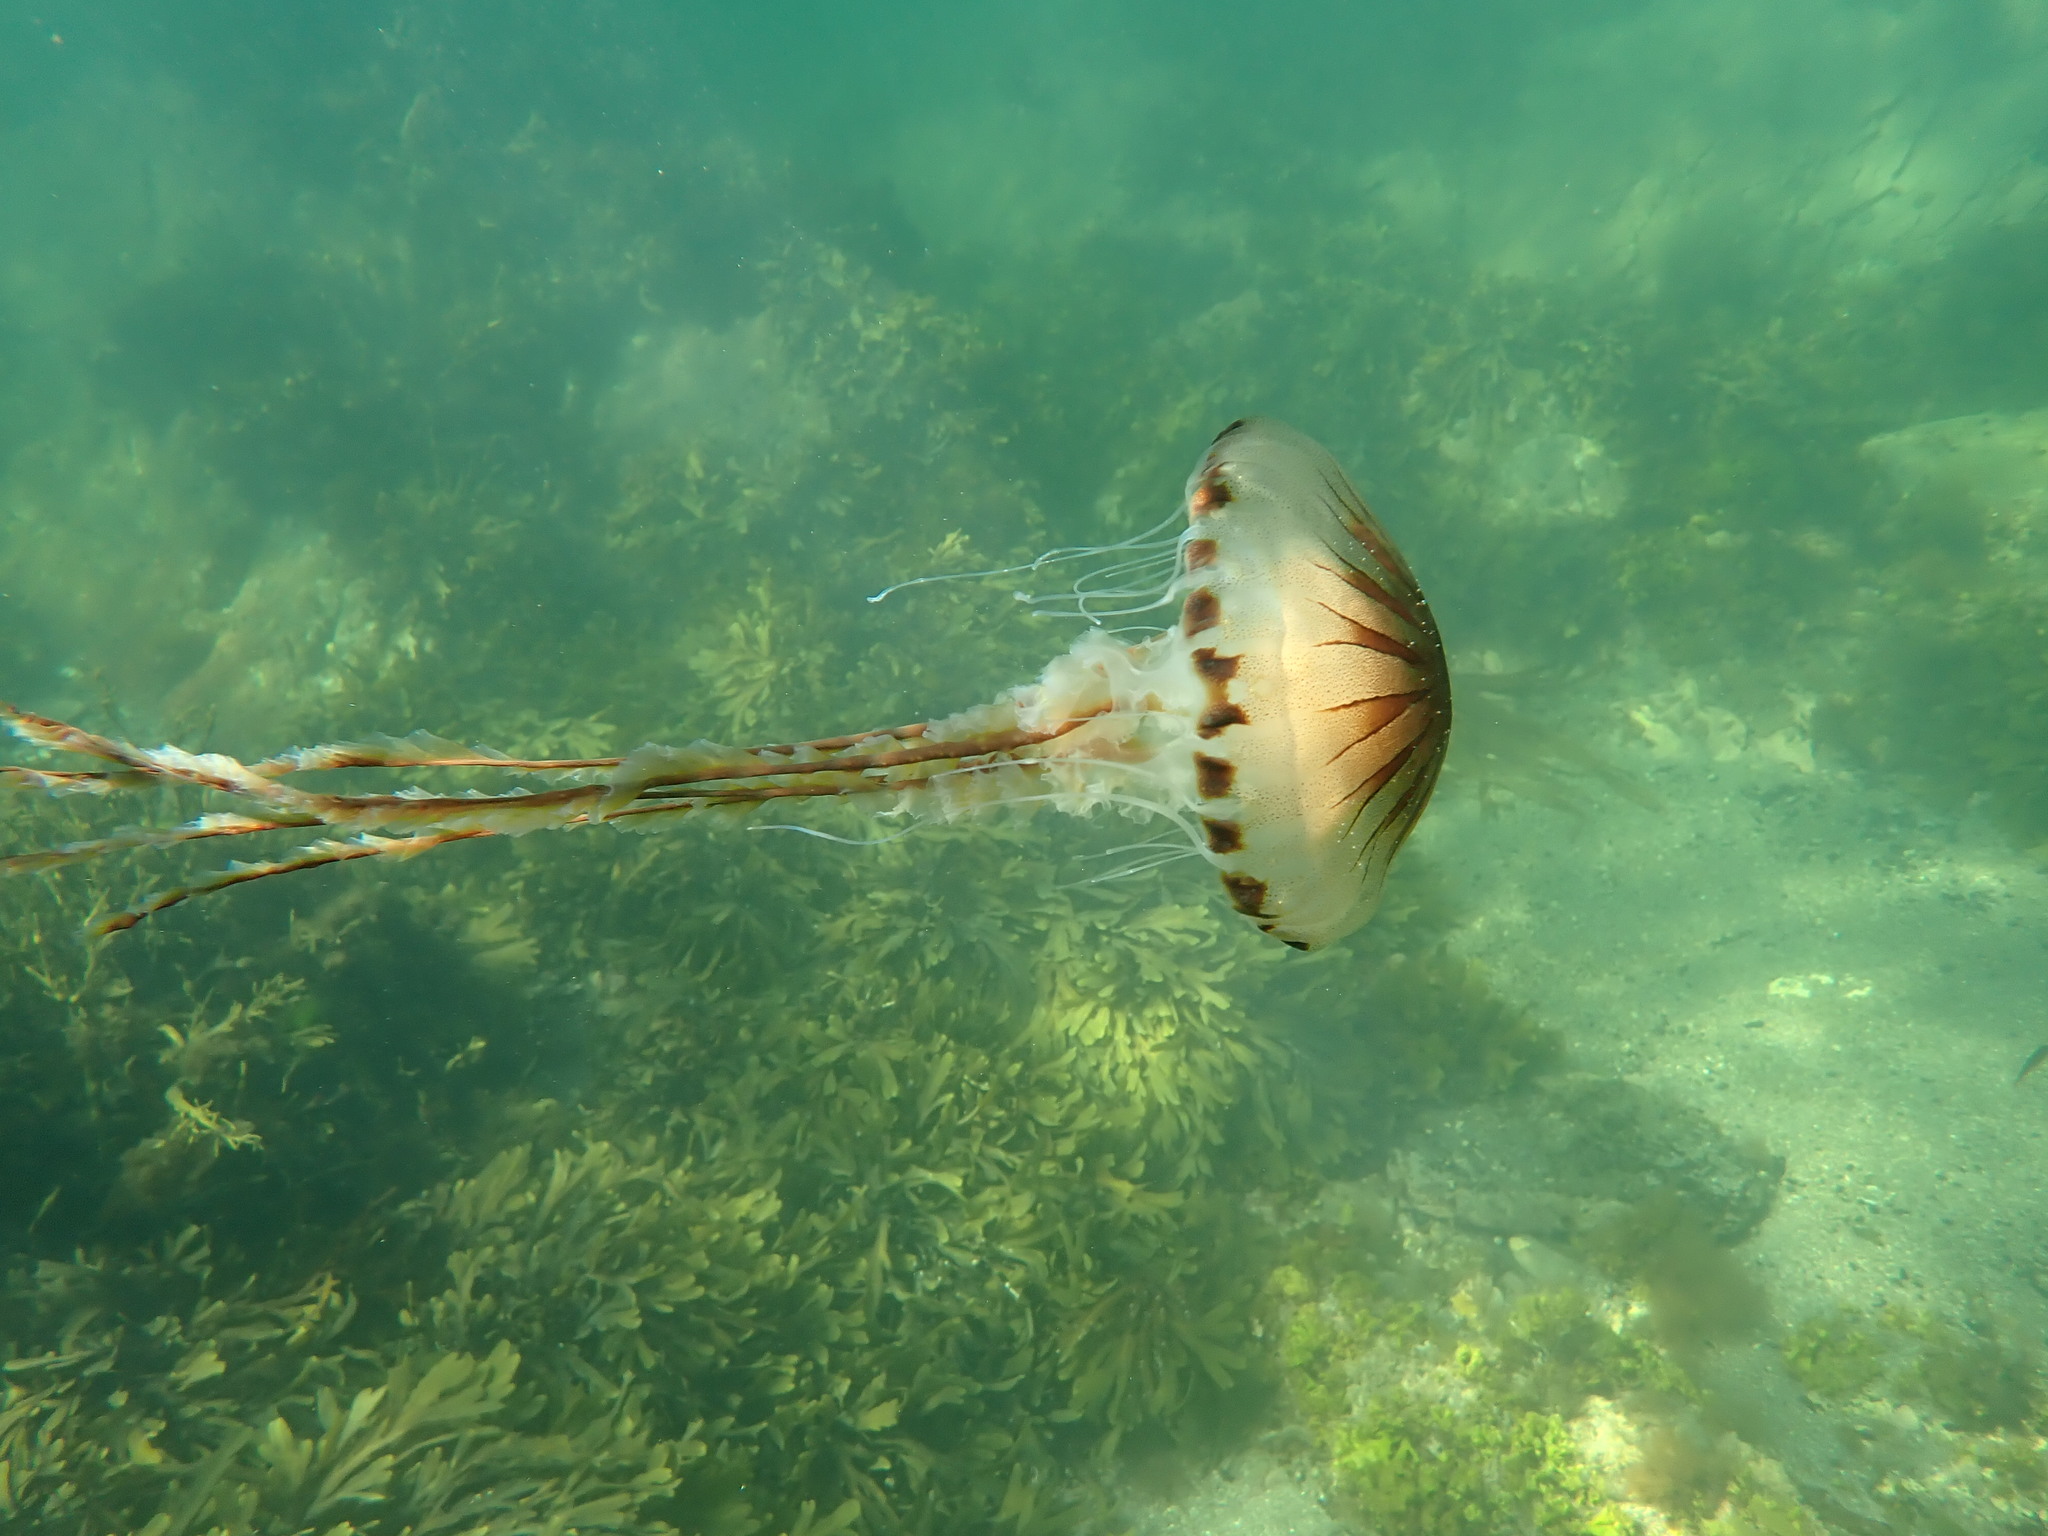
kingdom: Animalia
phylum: Cnidaria
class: Scyphozoa
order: Semaeostomeae
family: Pelagiidae
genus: Chrysaora
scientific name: Chrysaora hysoscella
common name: Compass jellyfish
